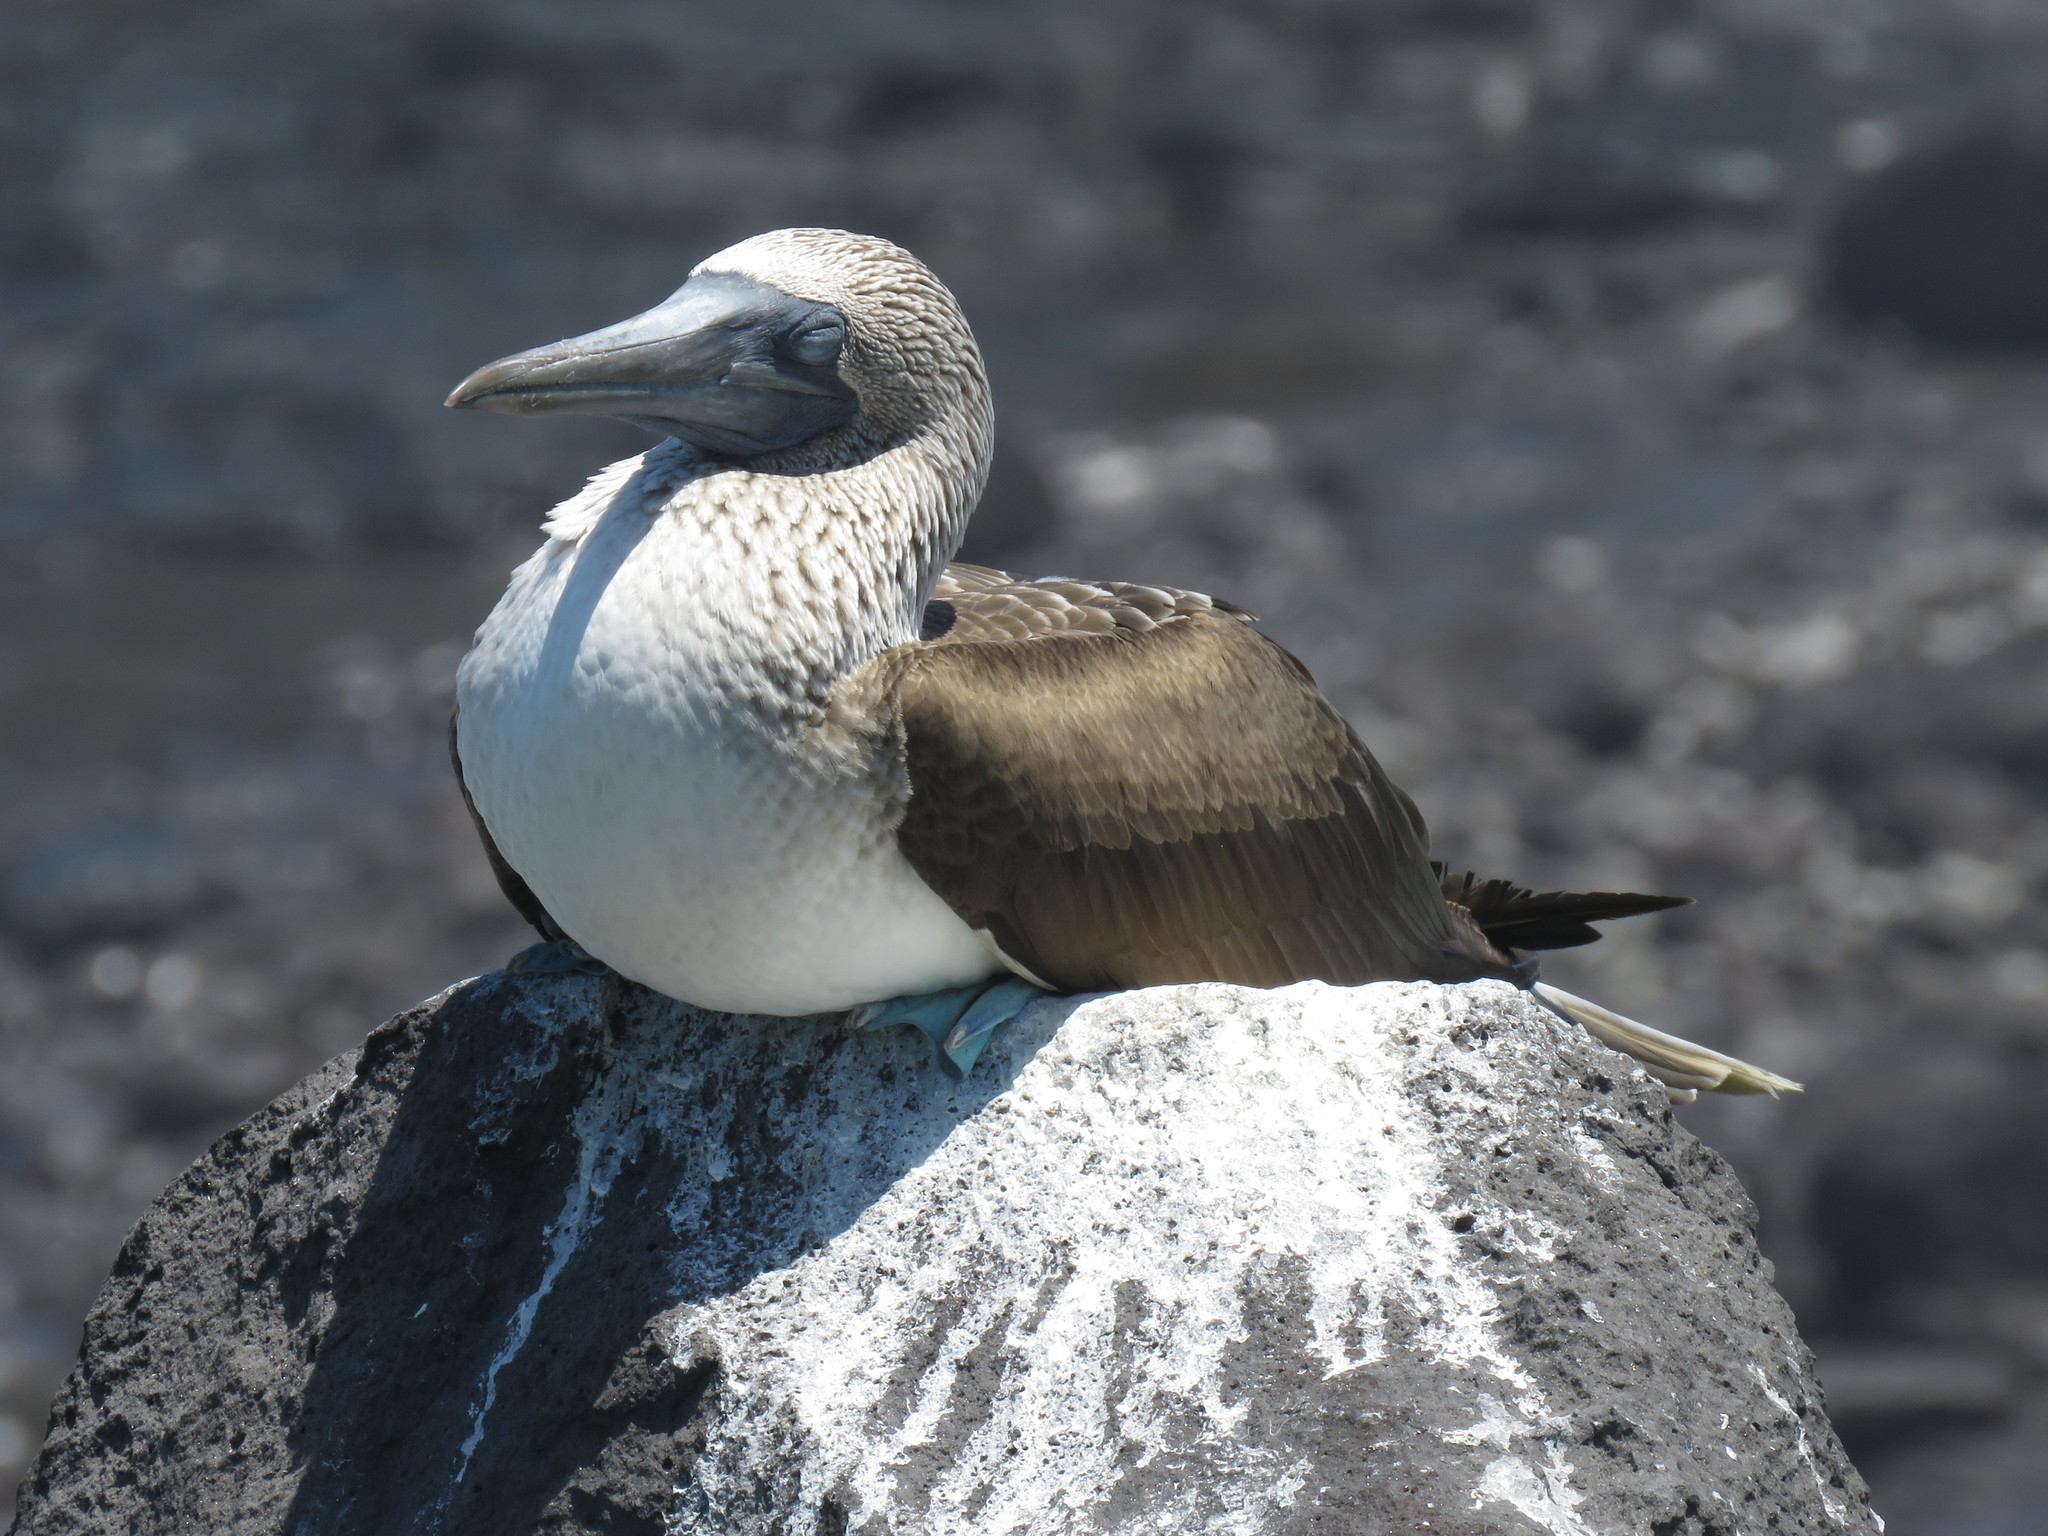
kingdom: Animalia
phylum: Chordata
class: Aves
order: Suliformes
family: Sulidae
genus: Sula
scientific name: Sula nebouxii
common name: Blue-footed booby
